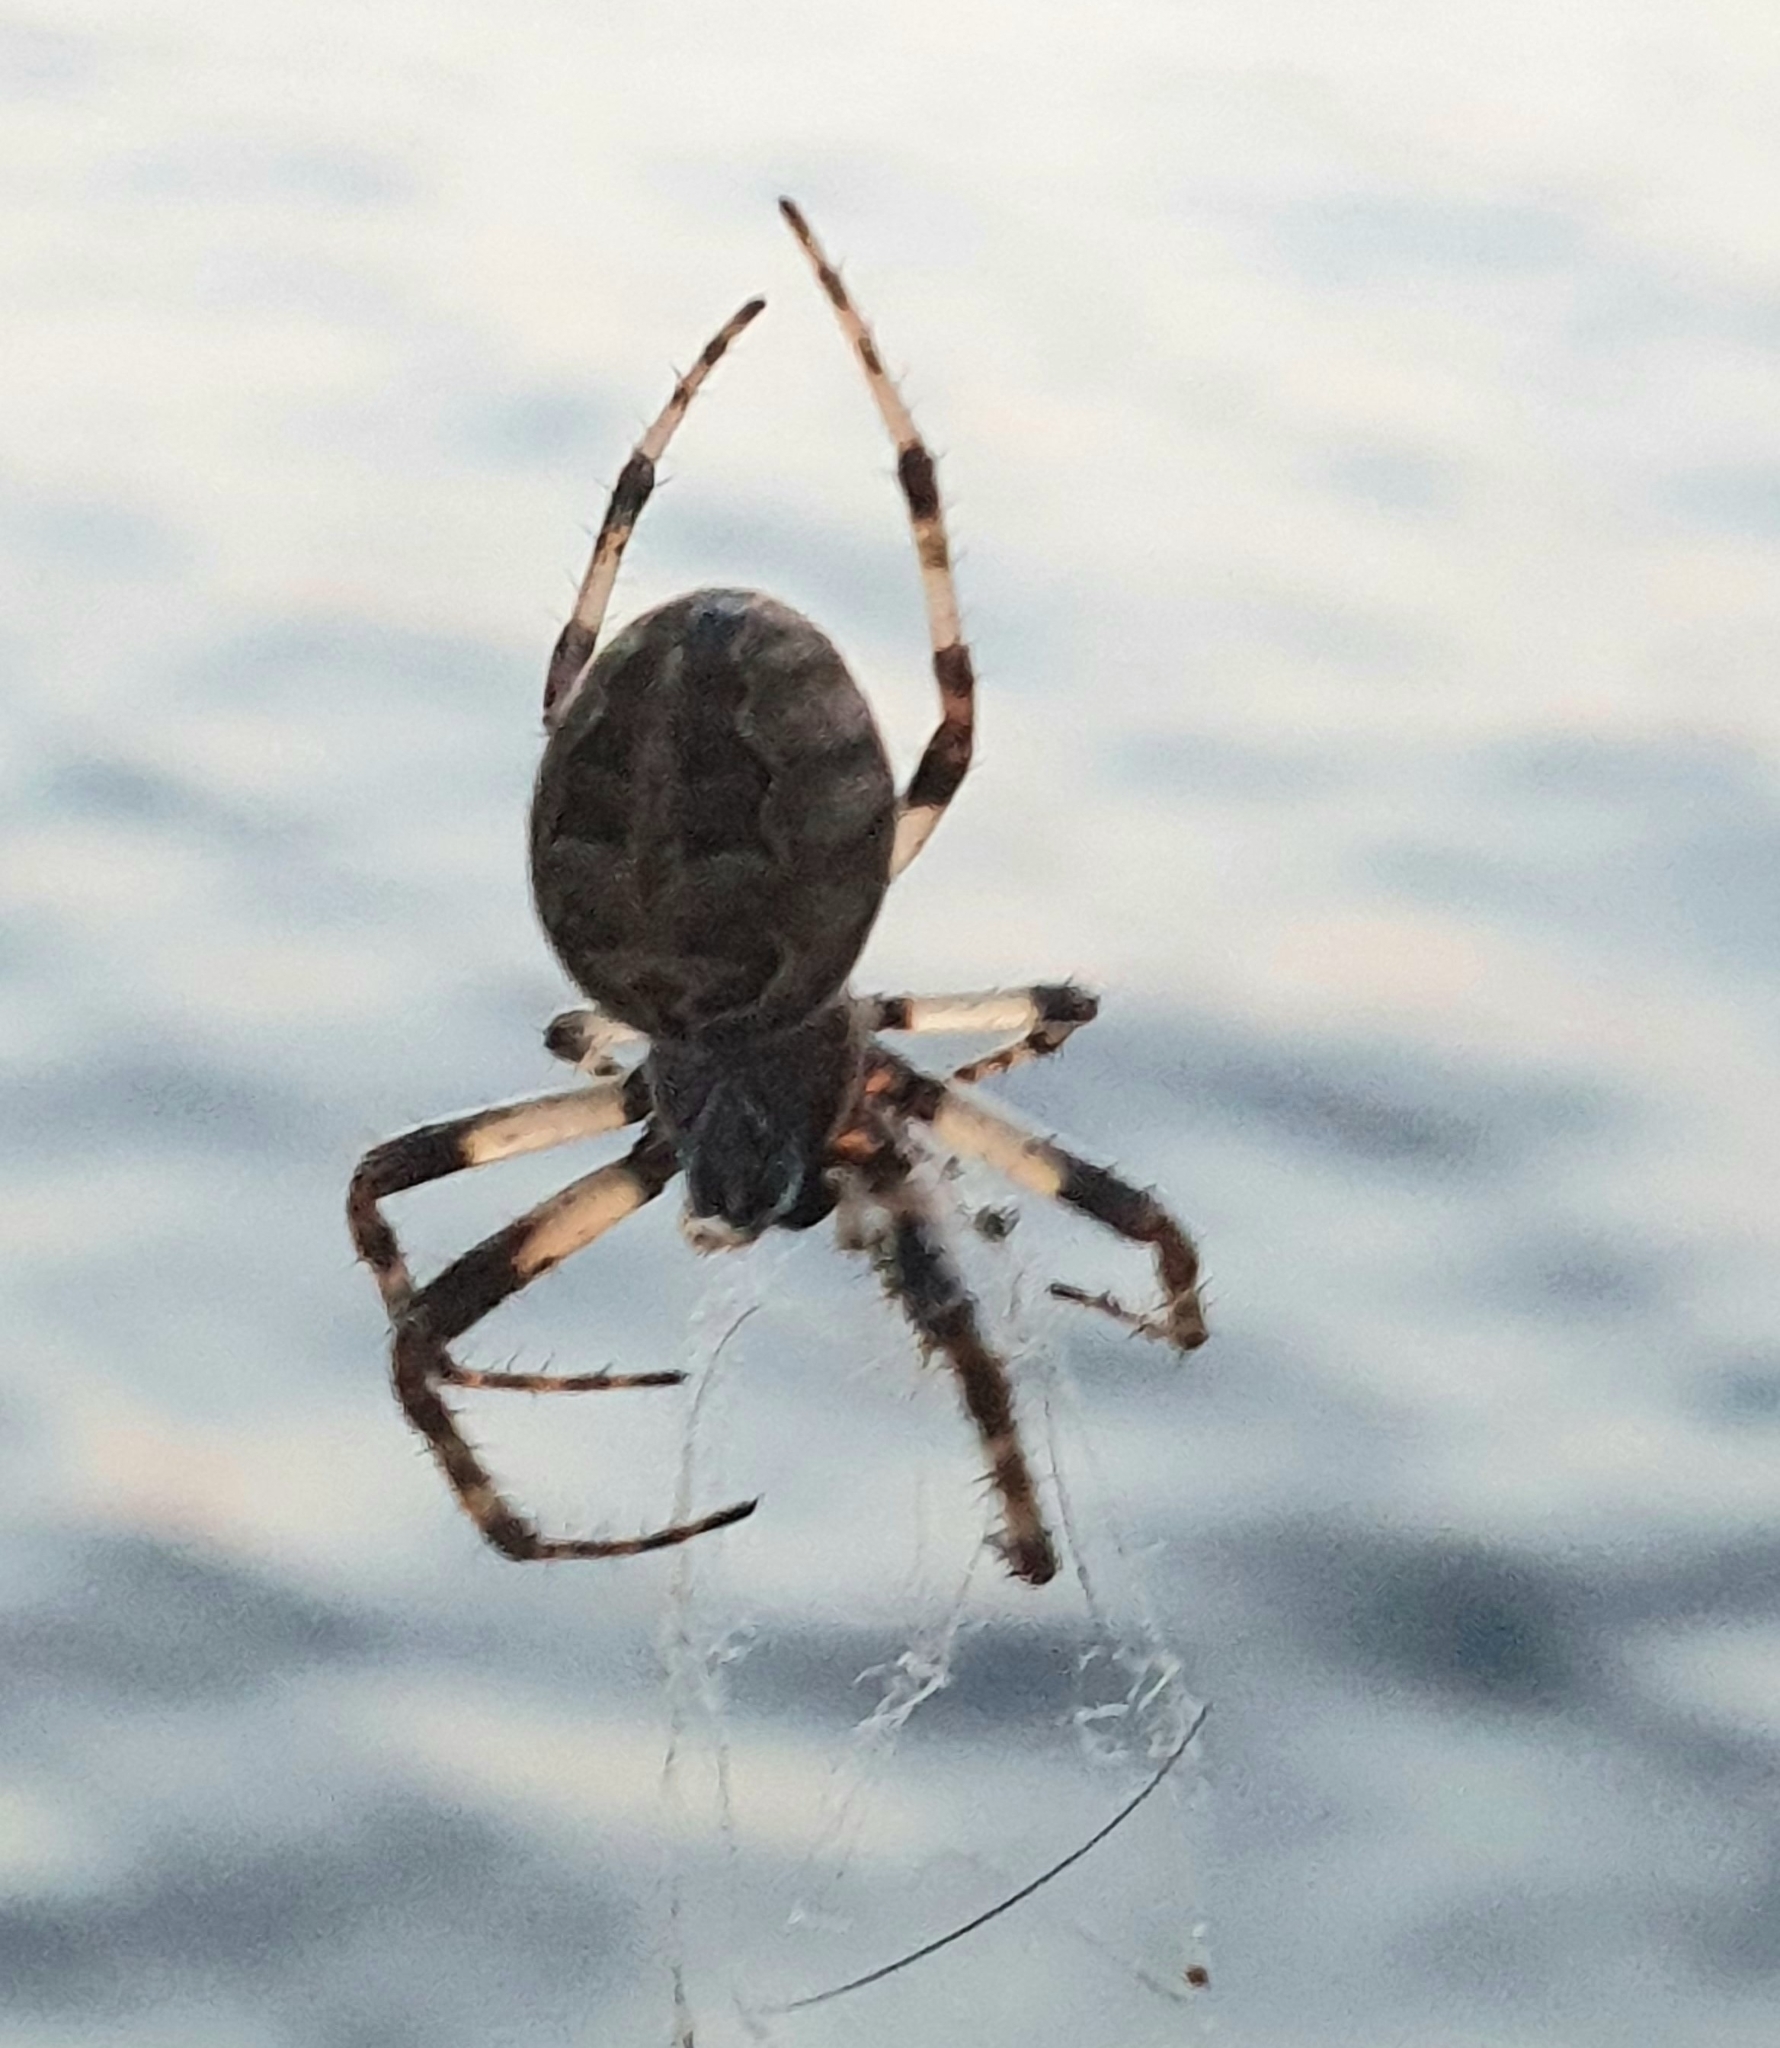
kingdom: Animalia
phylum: Arthropoda
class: Arachnida
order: Araneae
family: Araneidae
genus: Larinioides
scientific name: Larinioides sclopetarius
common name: Bridge orbweaver
